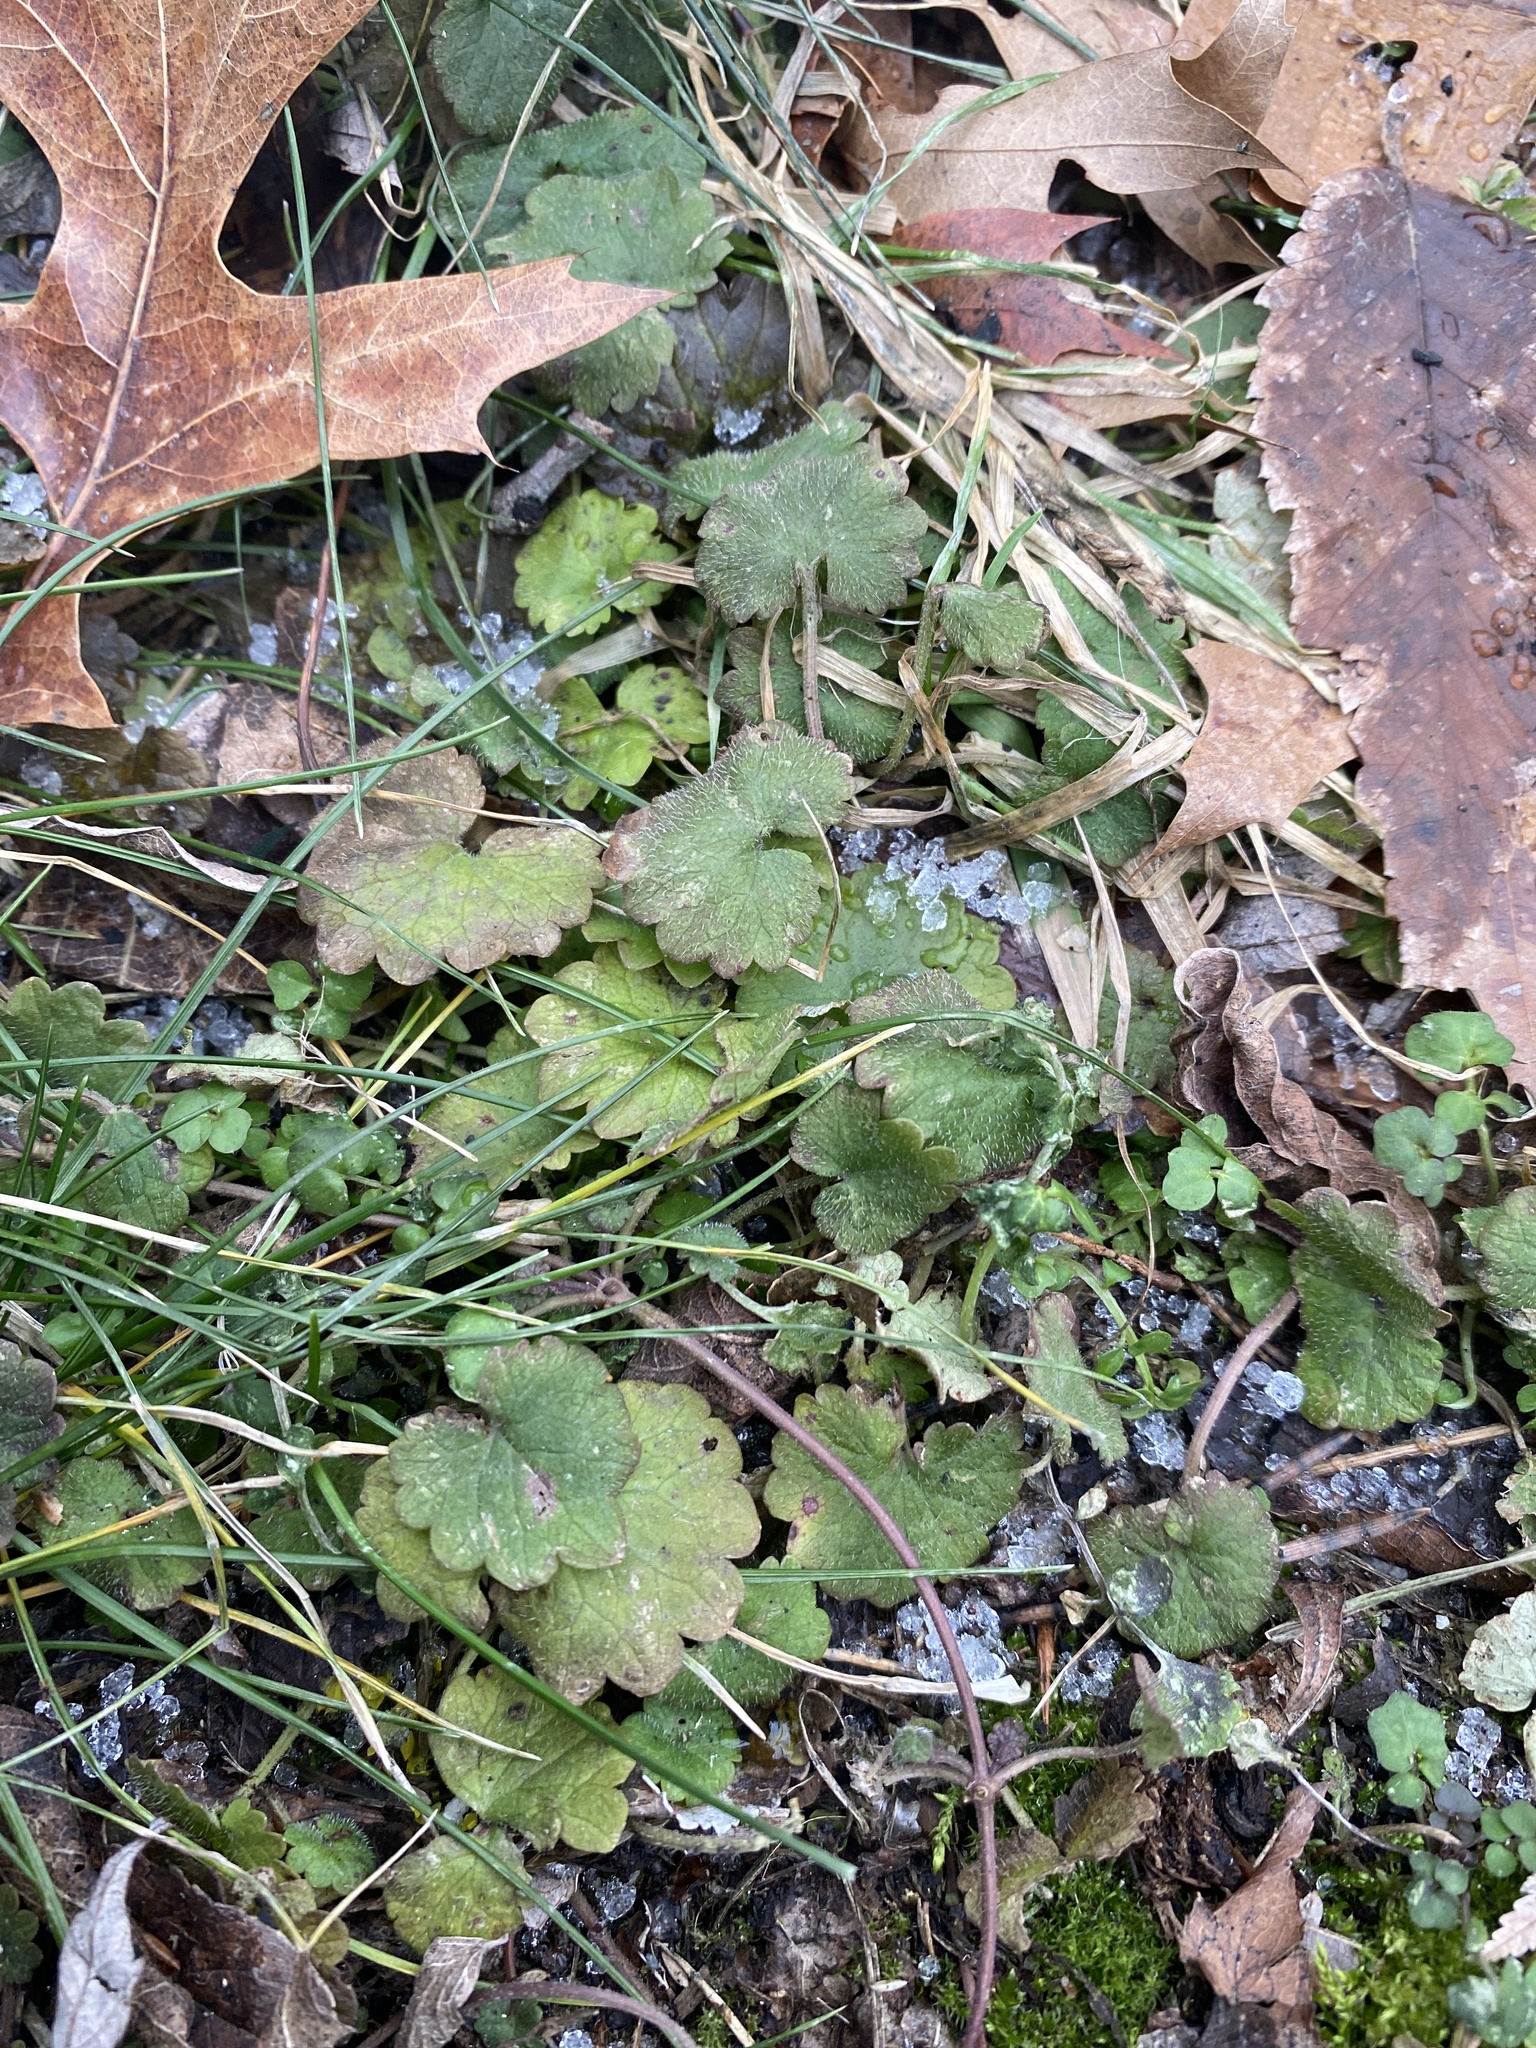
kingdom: Plantae
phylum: Tracheophyta
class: Magnoliopsida
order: Lamiales
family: Lamiaceae
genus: Glechoma
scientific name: Glechoma hederacea
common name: Ground ivy
